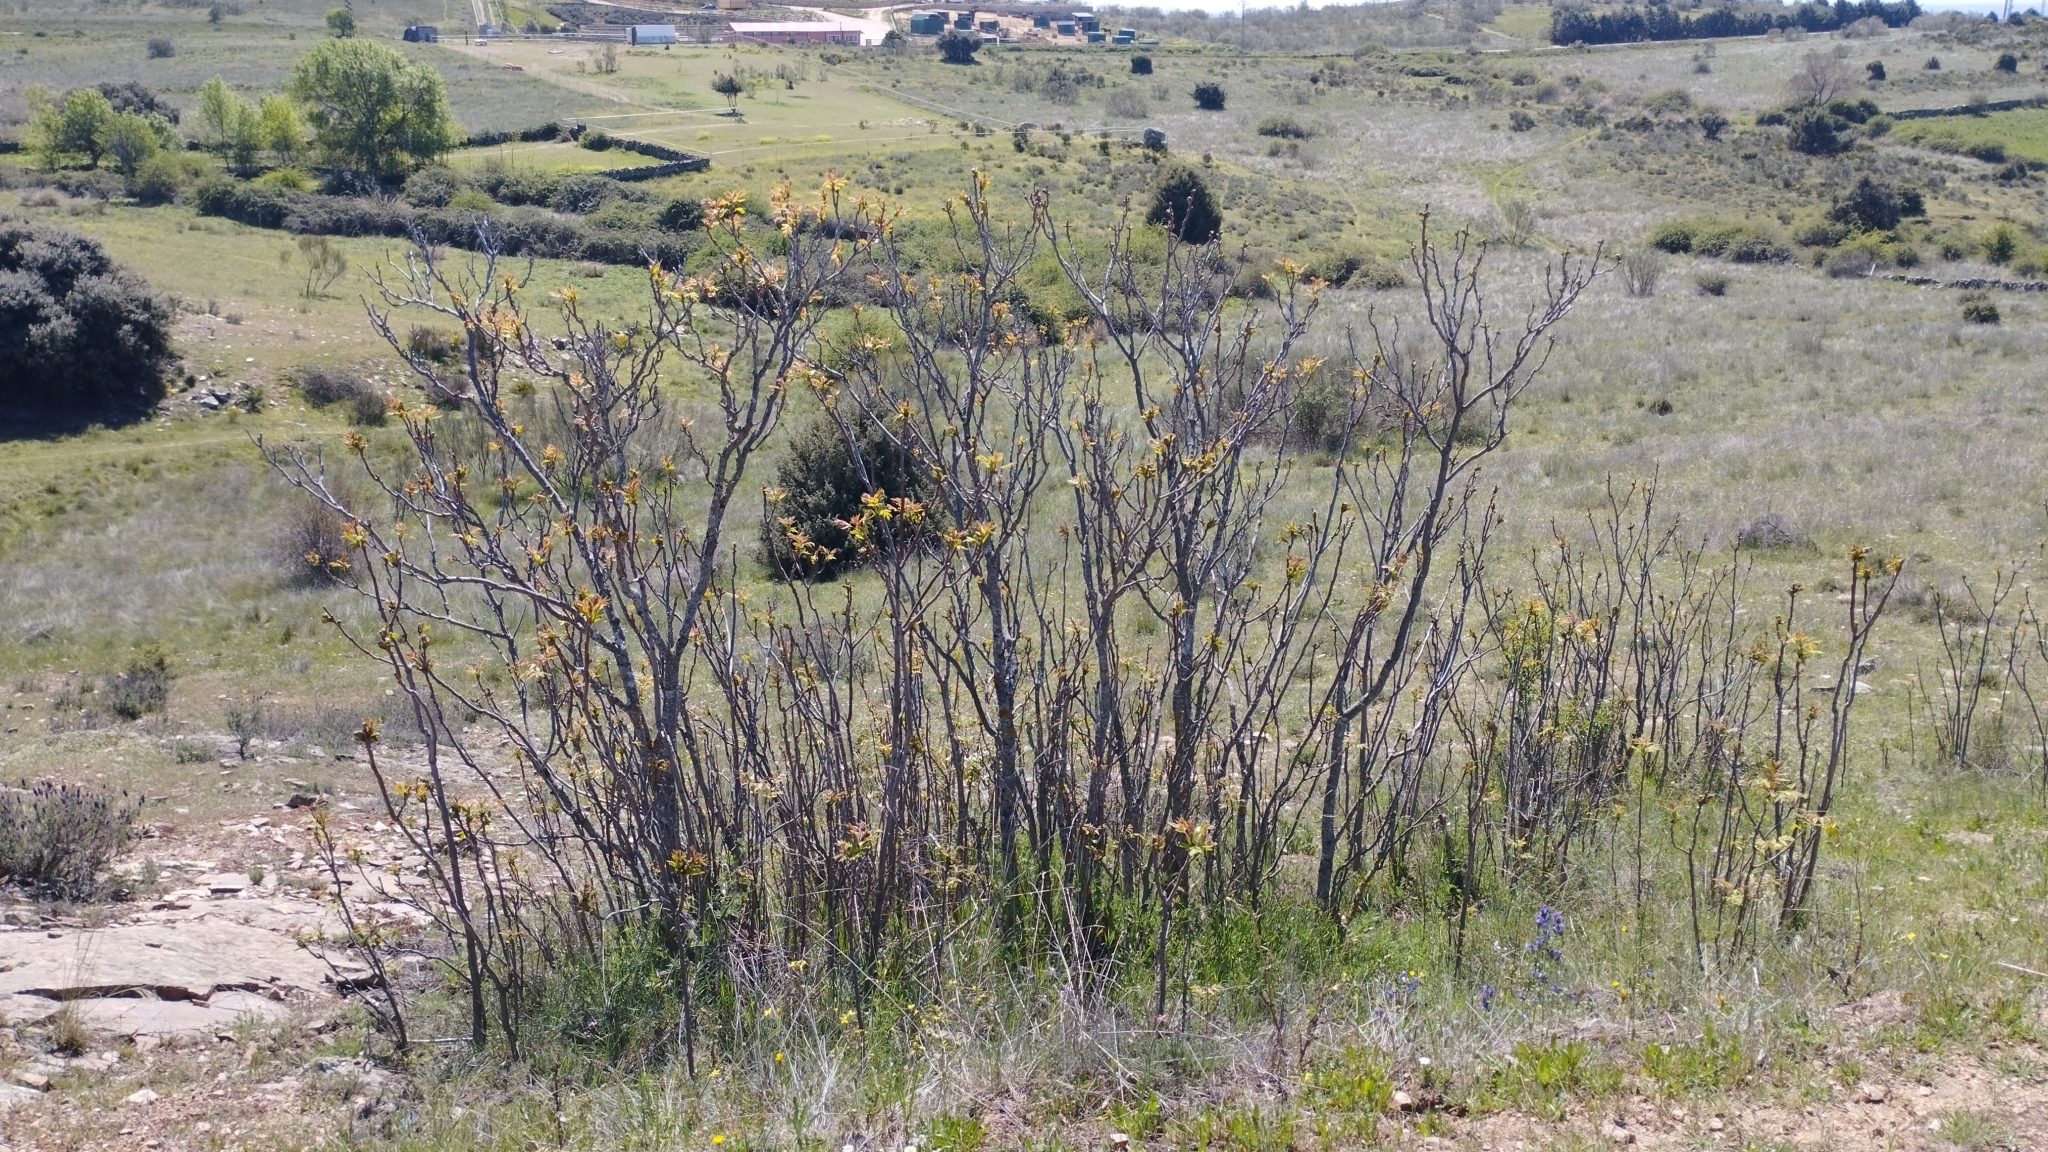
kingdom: Plantae
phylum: Tracheophyta
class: Magnoliopsida
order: Sapindales
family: Simaroubaceae
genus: Ailanthus
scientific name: Ailanthus altissima
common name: Tree-of-heaven
